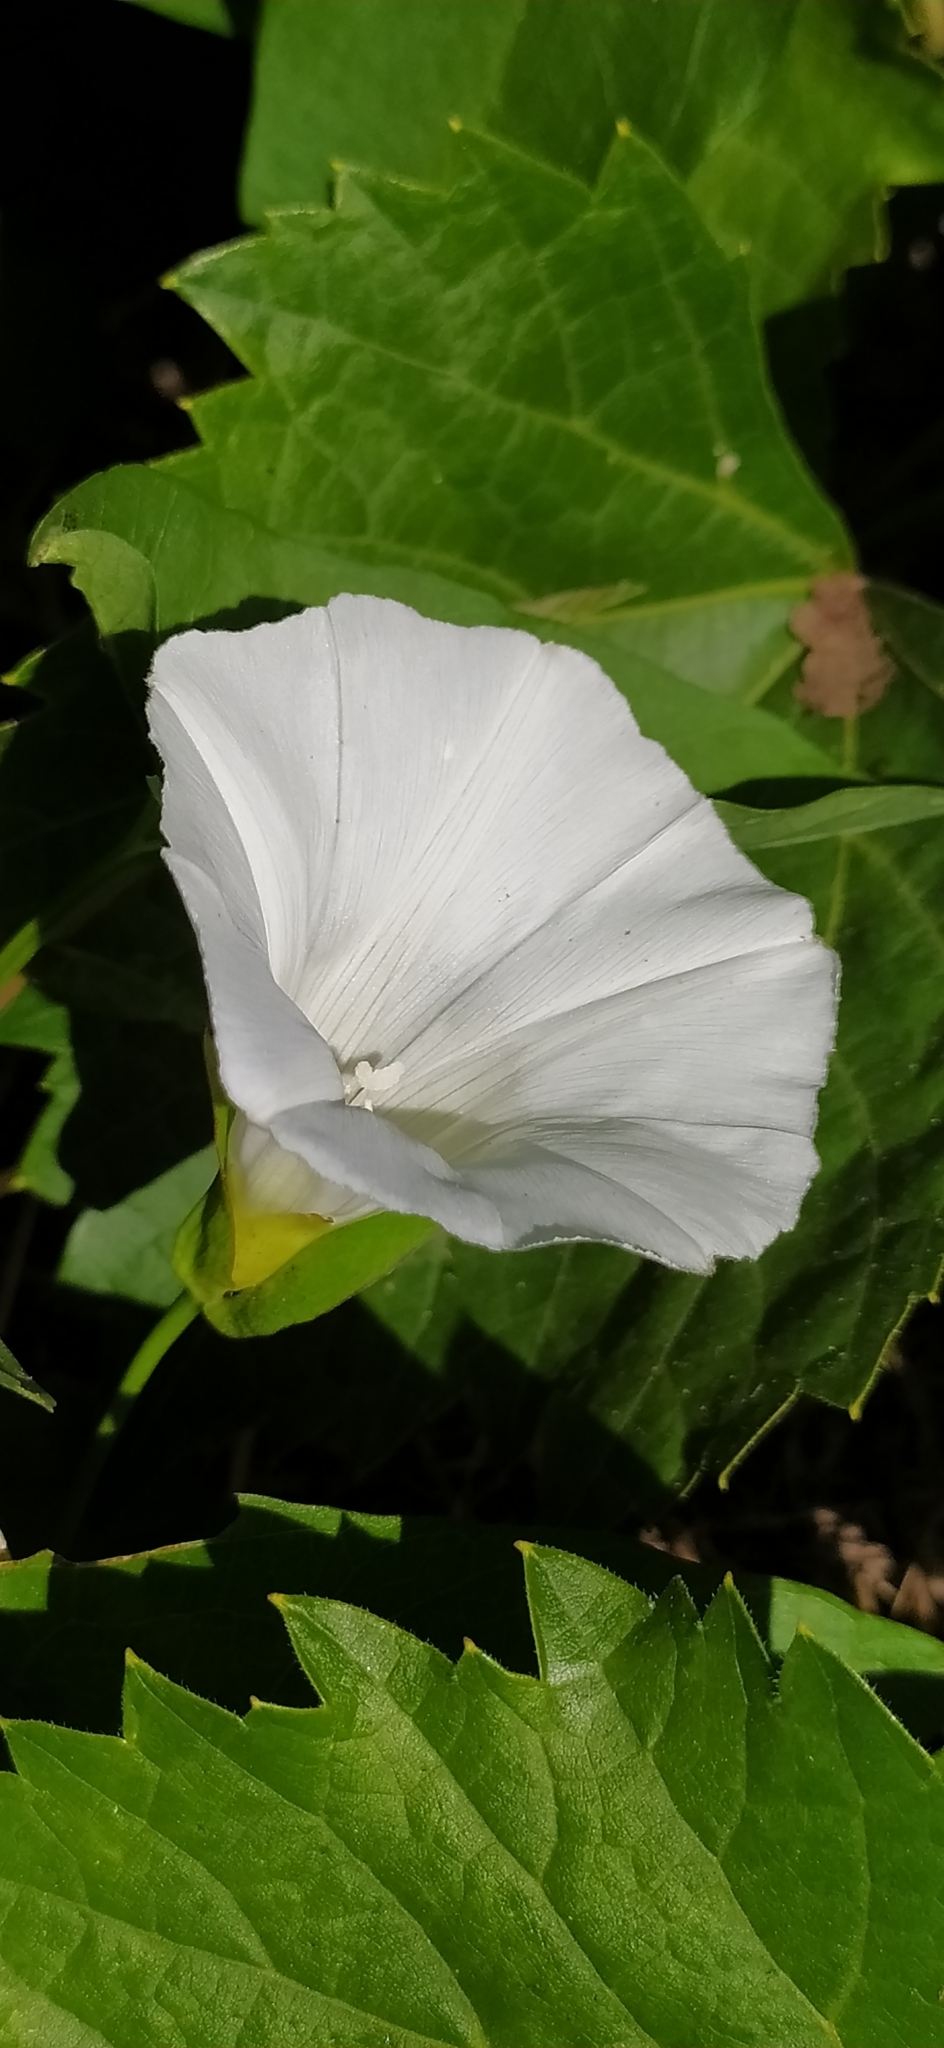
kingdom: Plantae
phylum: Tracheophyta
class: Magnoliopsida
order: Solanales
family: Convolvulaceae
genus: Calystegia
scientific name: Calystegia sepium
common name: Hedge bindweed
